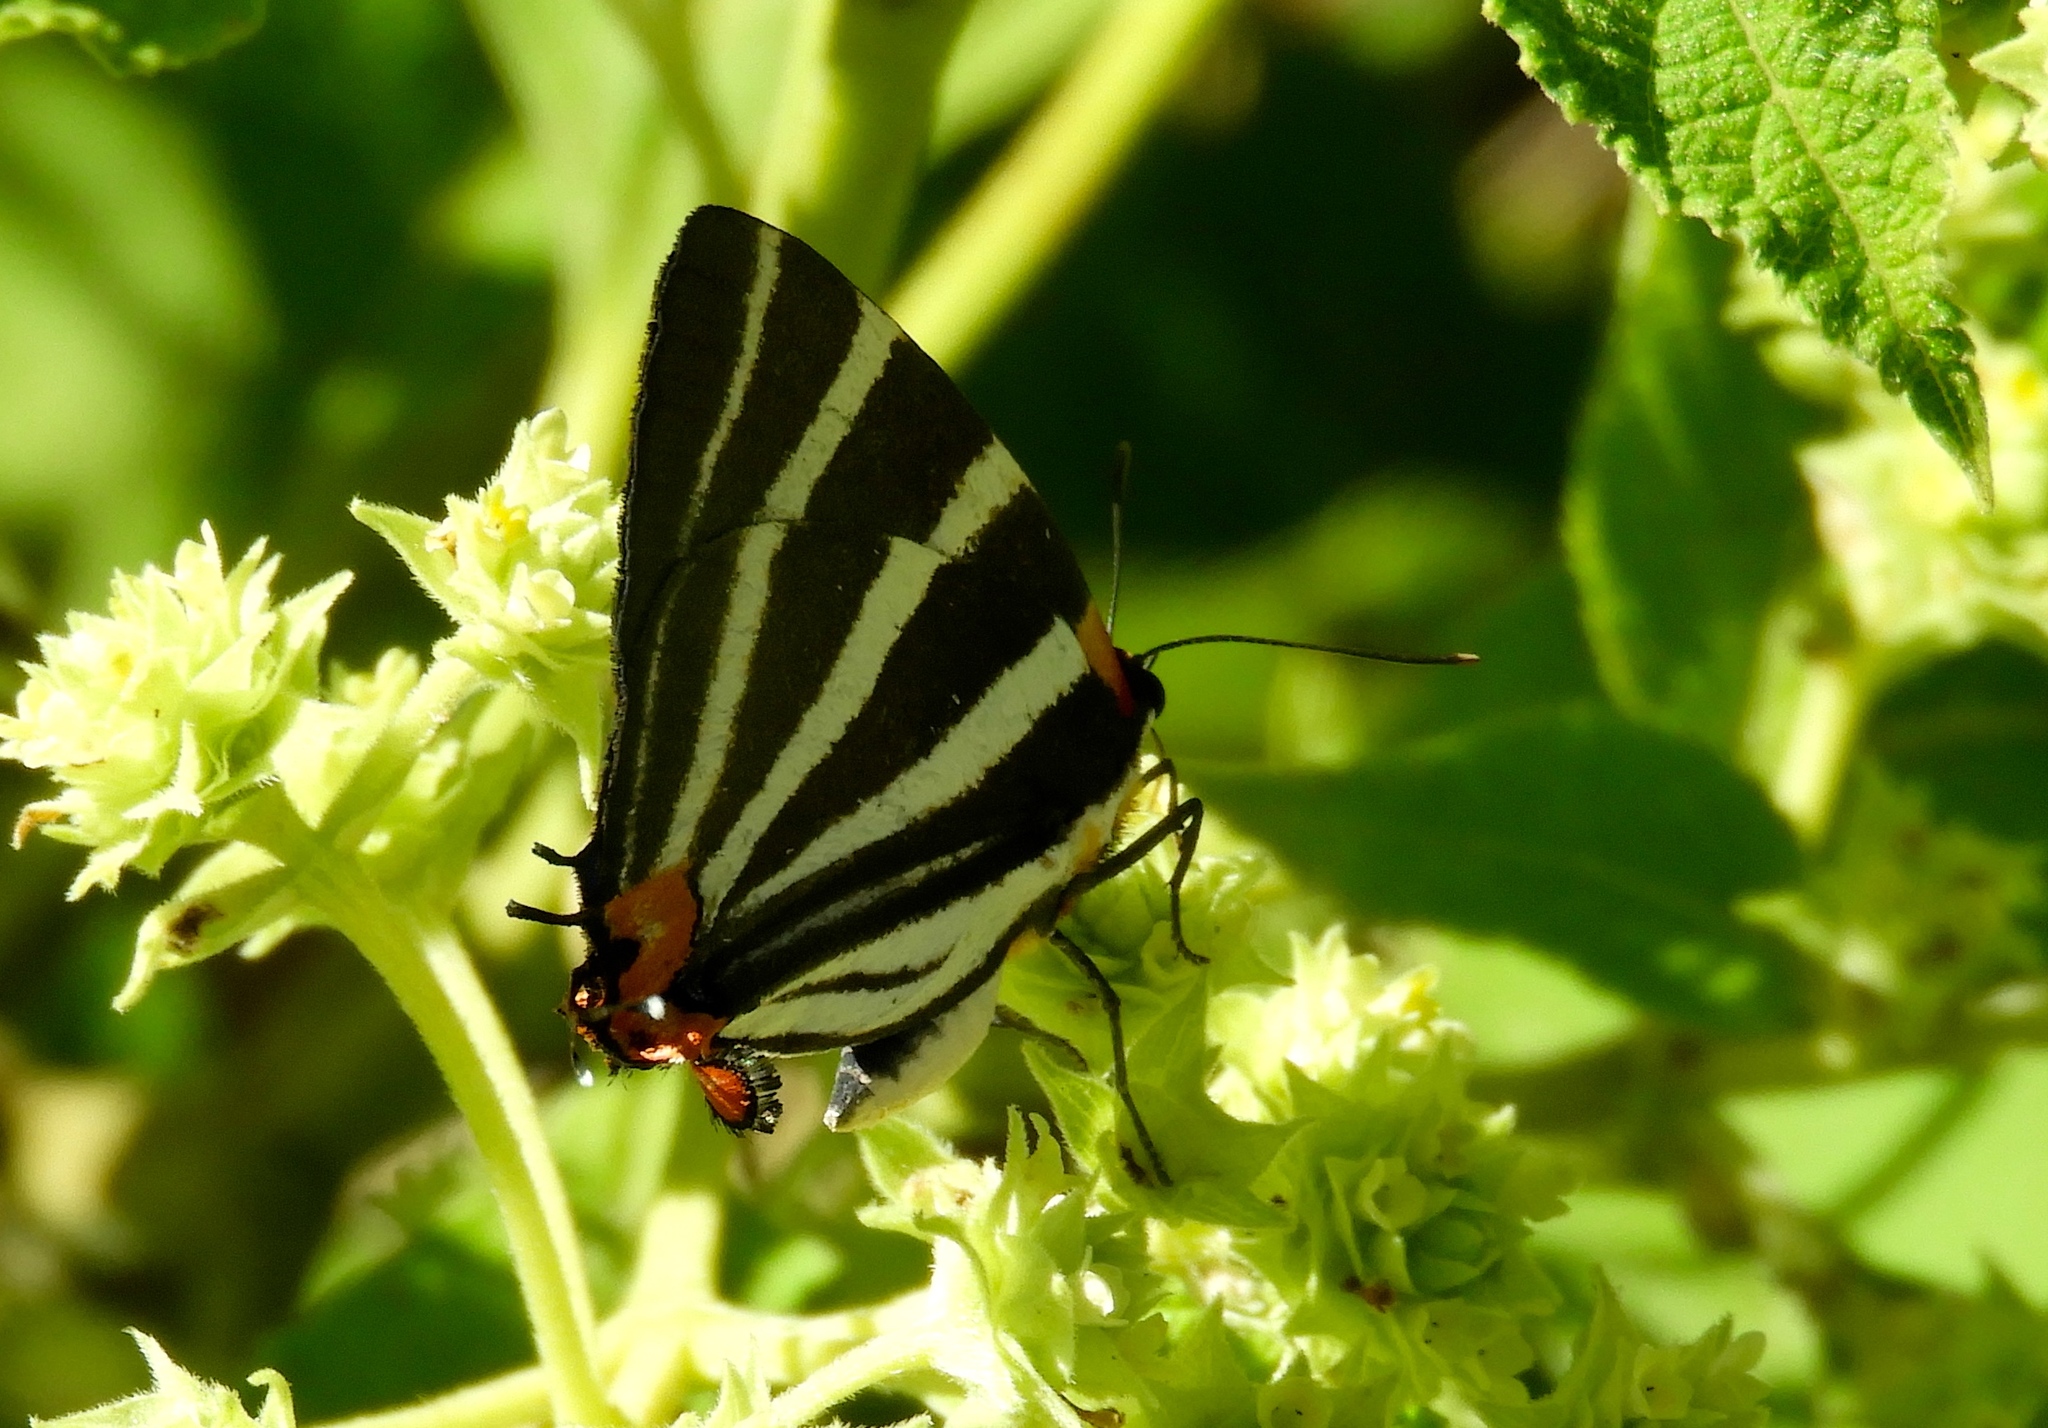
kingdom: Animalia
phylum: Arthropoda
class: Insecta
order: Lepidoptera
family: Lycaenidae
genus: Thecla
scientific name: Thecla bathildis
